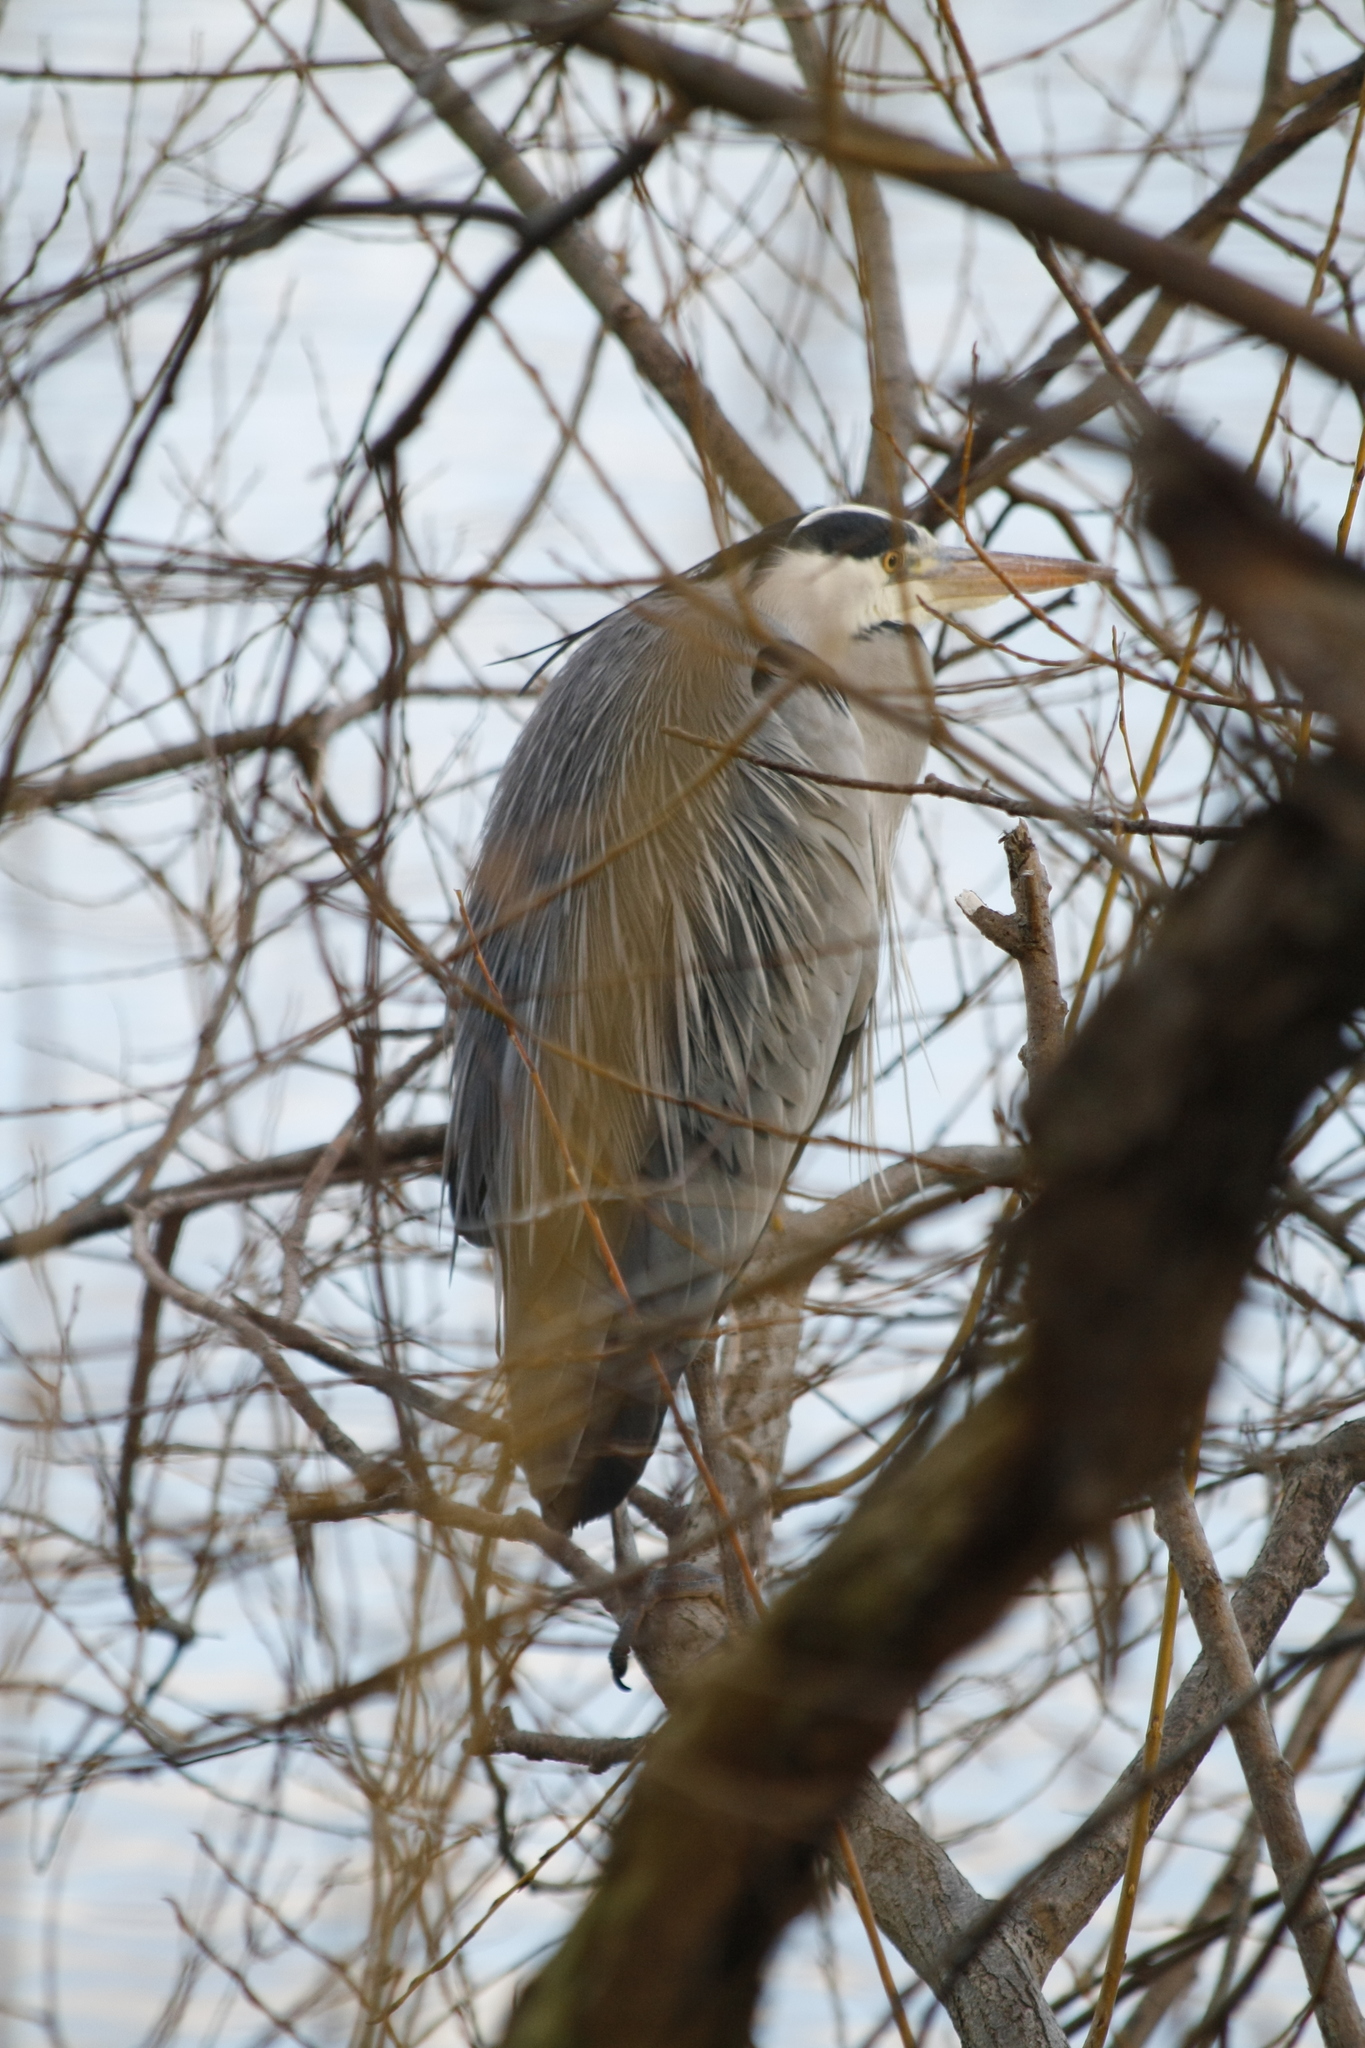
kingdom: Animalia
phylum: Chordata
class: Aves
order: Pelecaniformes
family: Ardeidae
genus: Ardea
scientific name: Ardea cinerea
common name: Grey heron
